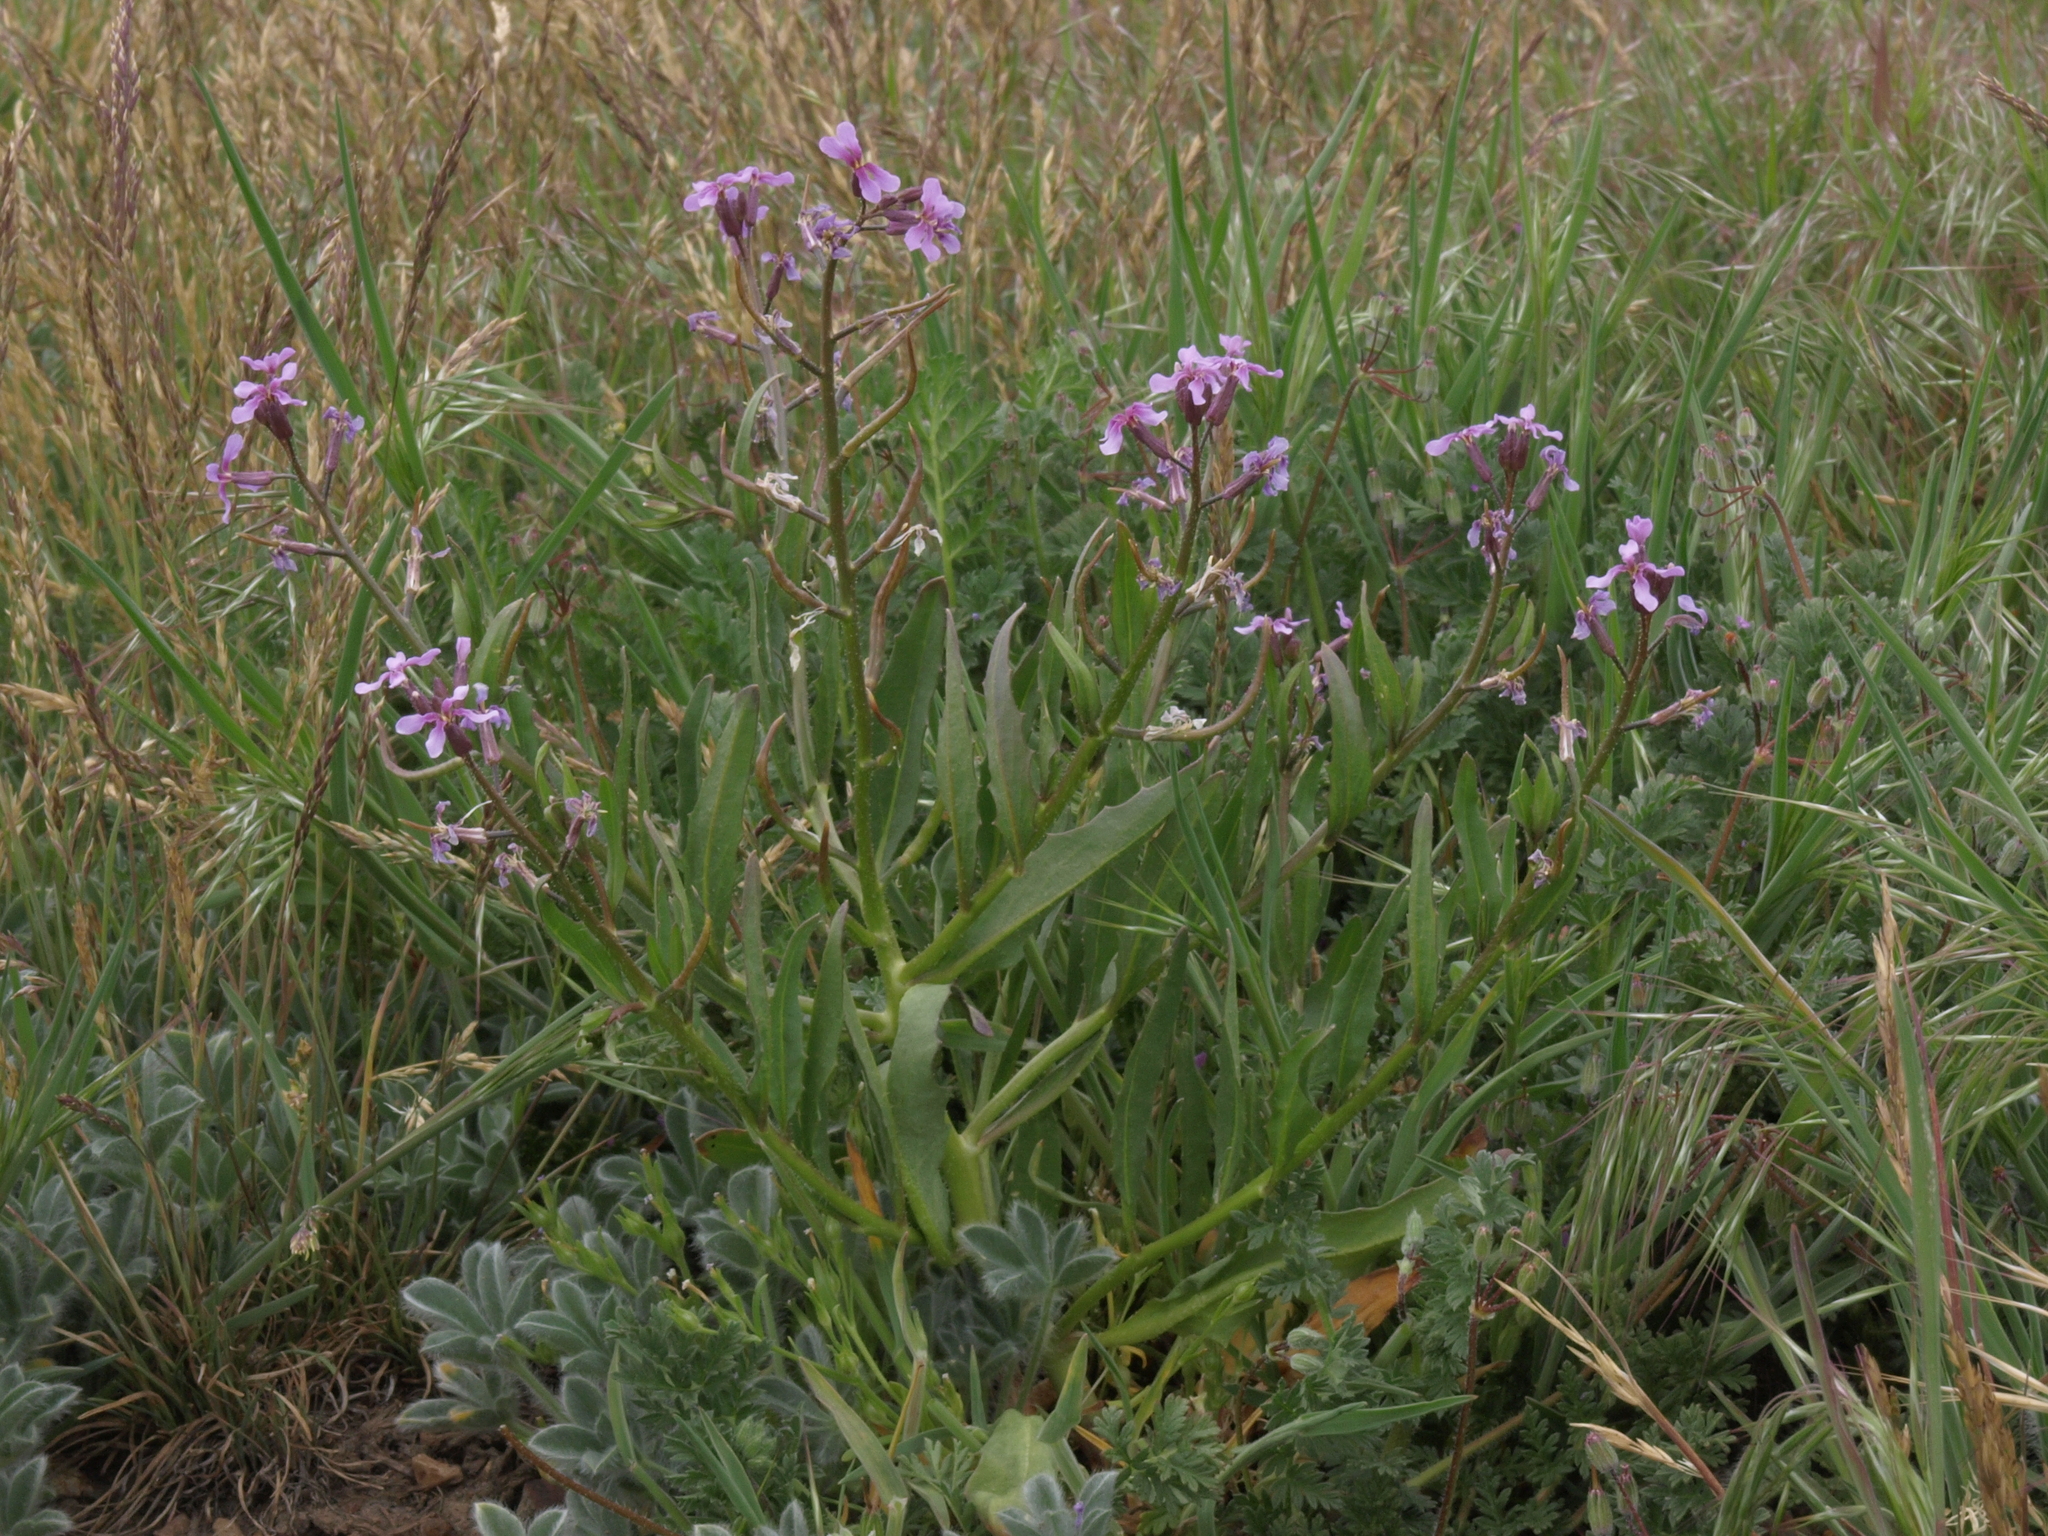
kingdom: Plantae
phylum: Tracheophyta
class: Magnoliopsida
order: Brassicales
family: Brassicaceae
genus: Chorispora
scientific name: Chorispora tenella
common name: Crossflower
